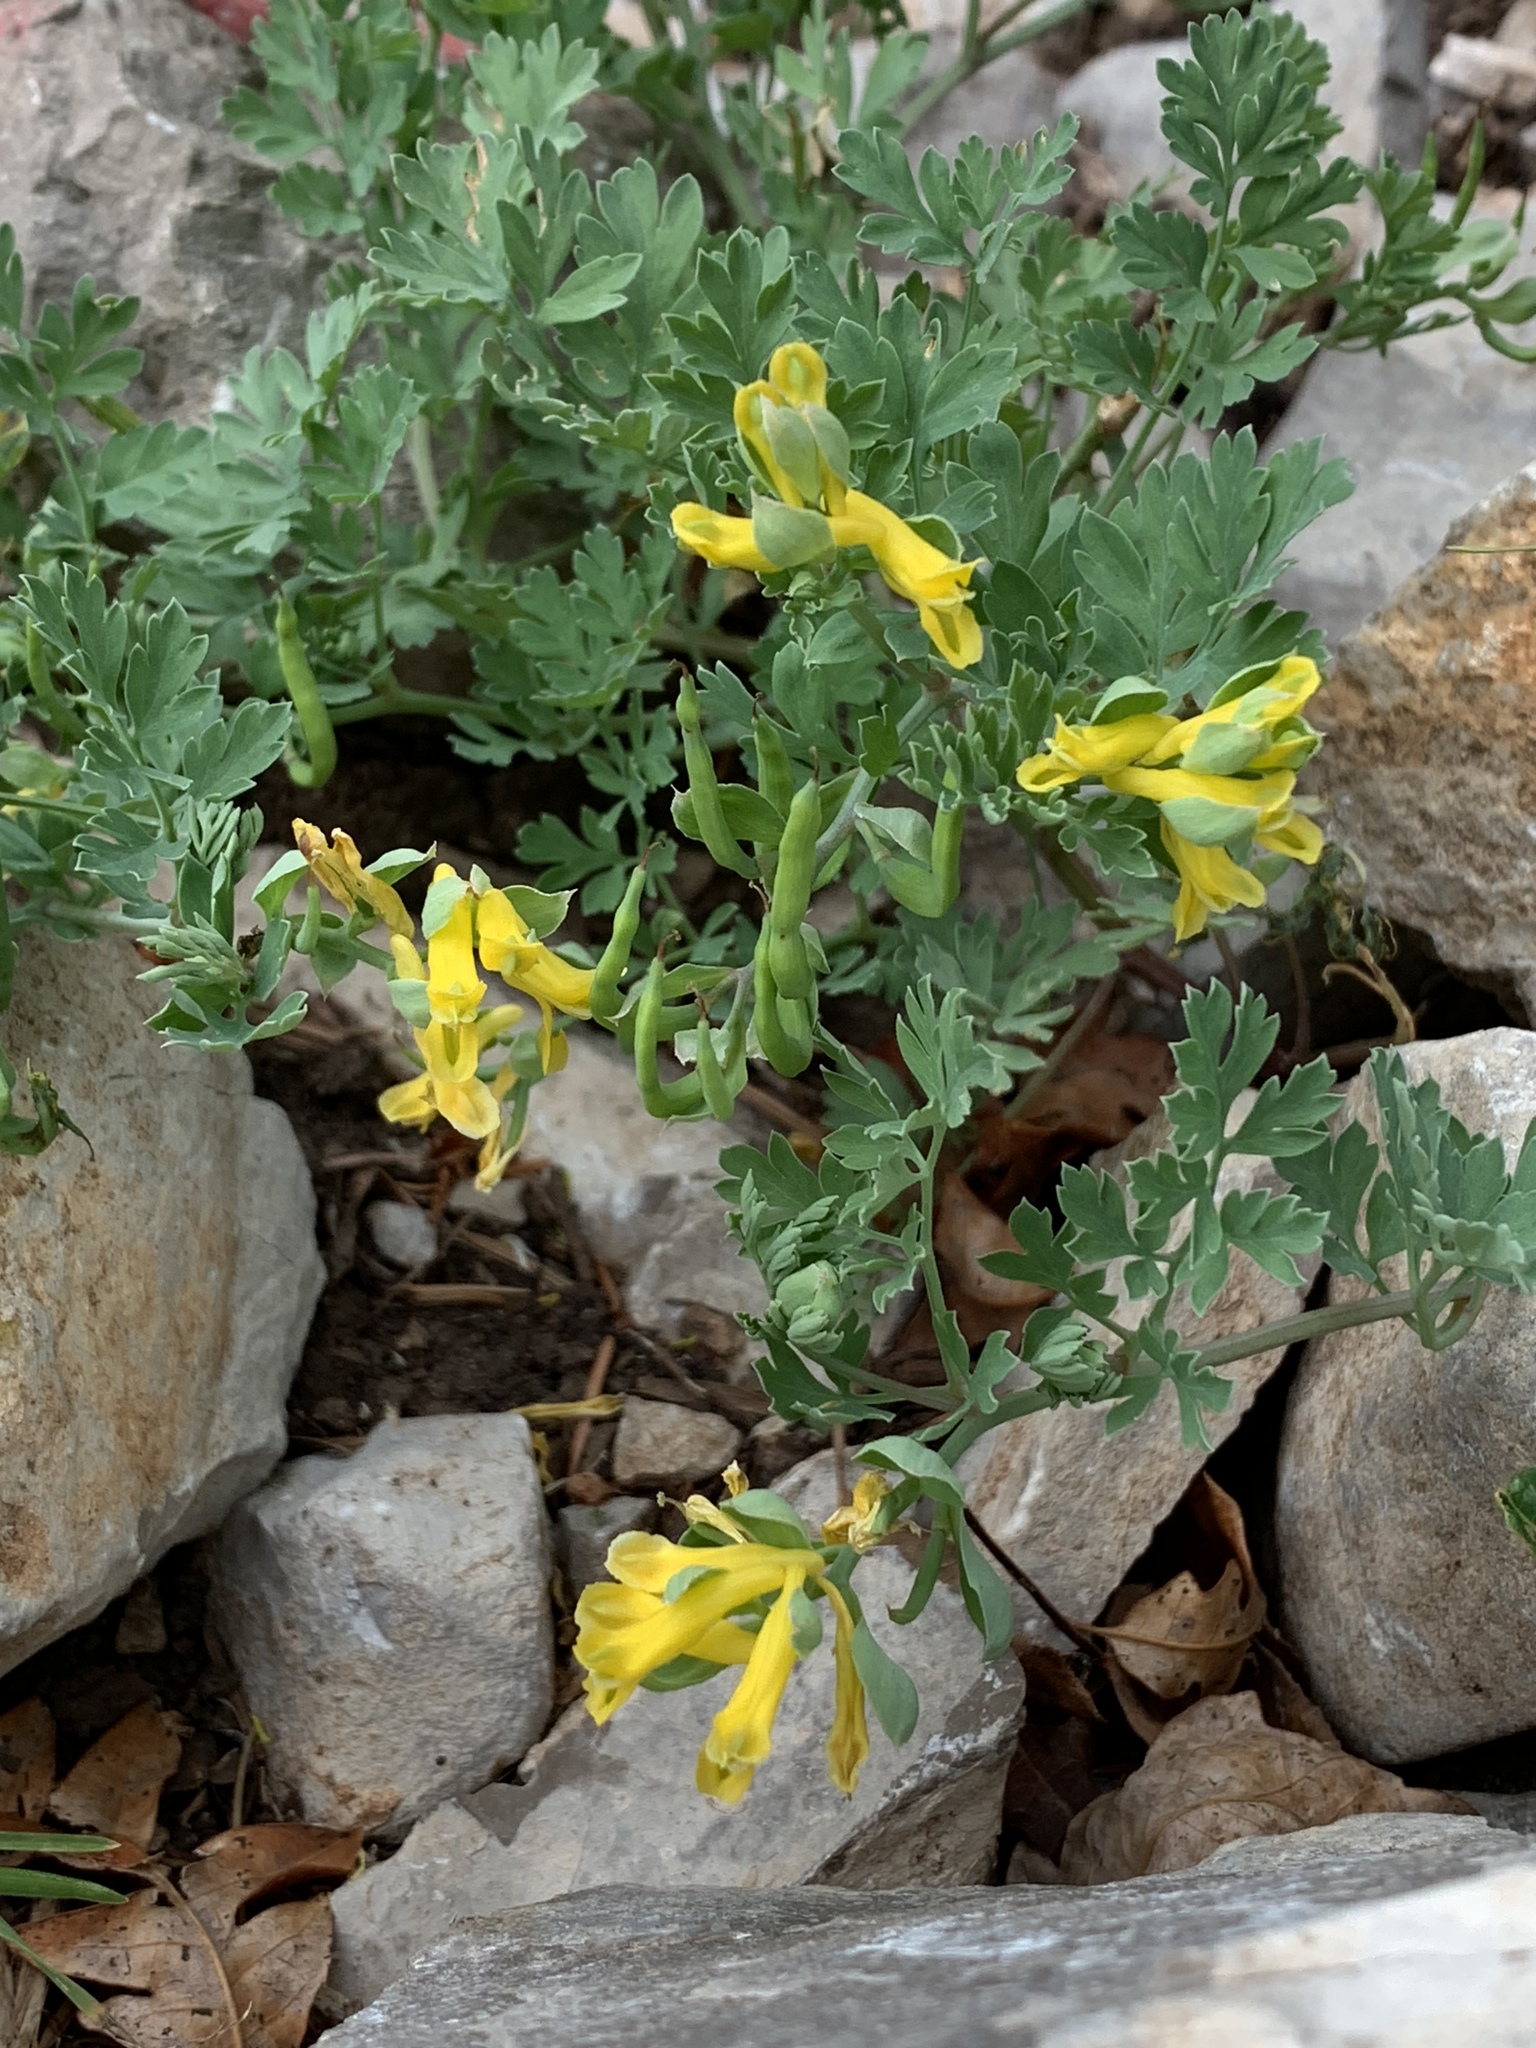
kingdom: Plantae
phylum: Tracheophyta
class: Magnoliopsida
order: Ranunculales
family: Papaveraceae
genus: Corydalis
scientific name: Corydalis aurea
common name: Golden corydalis
